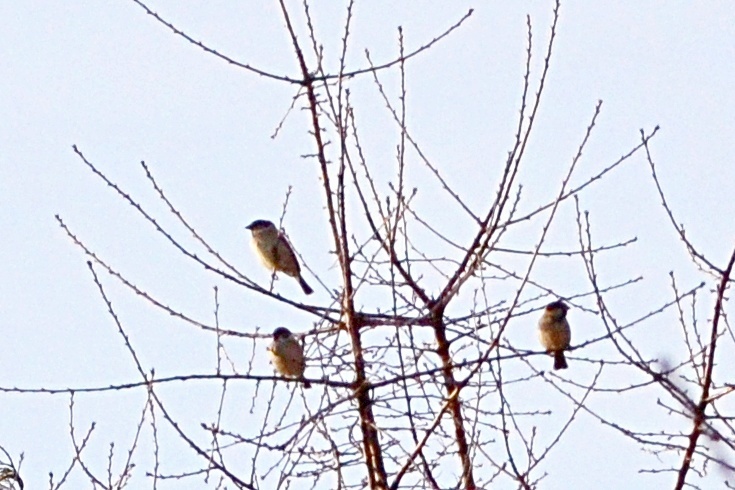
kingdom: Animalia
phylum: Chordata
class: Aves
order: Passeriformes
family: Passeridae
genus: Passer
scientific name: Passer domesticus
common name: House sparrow
